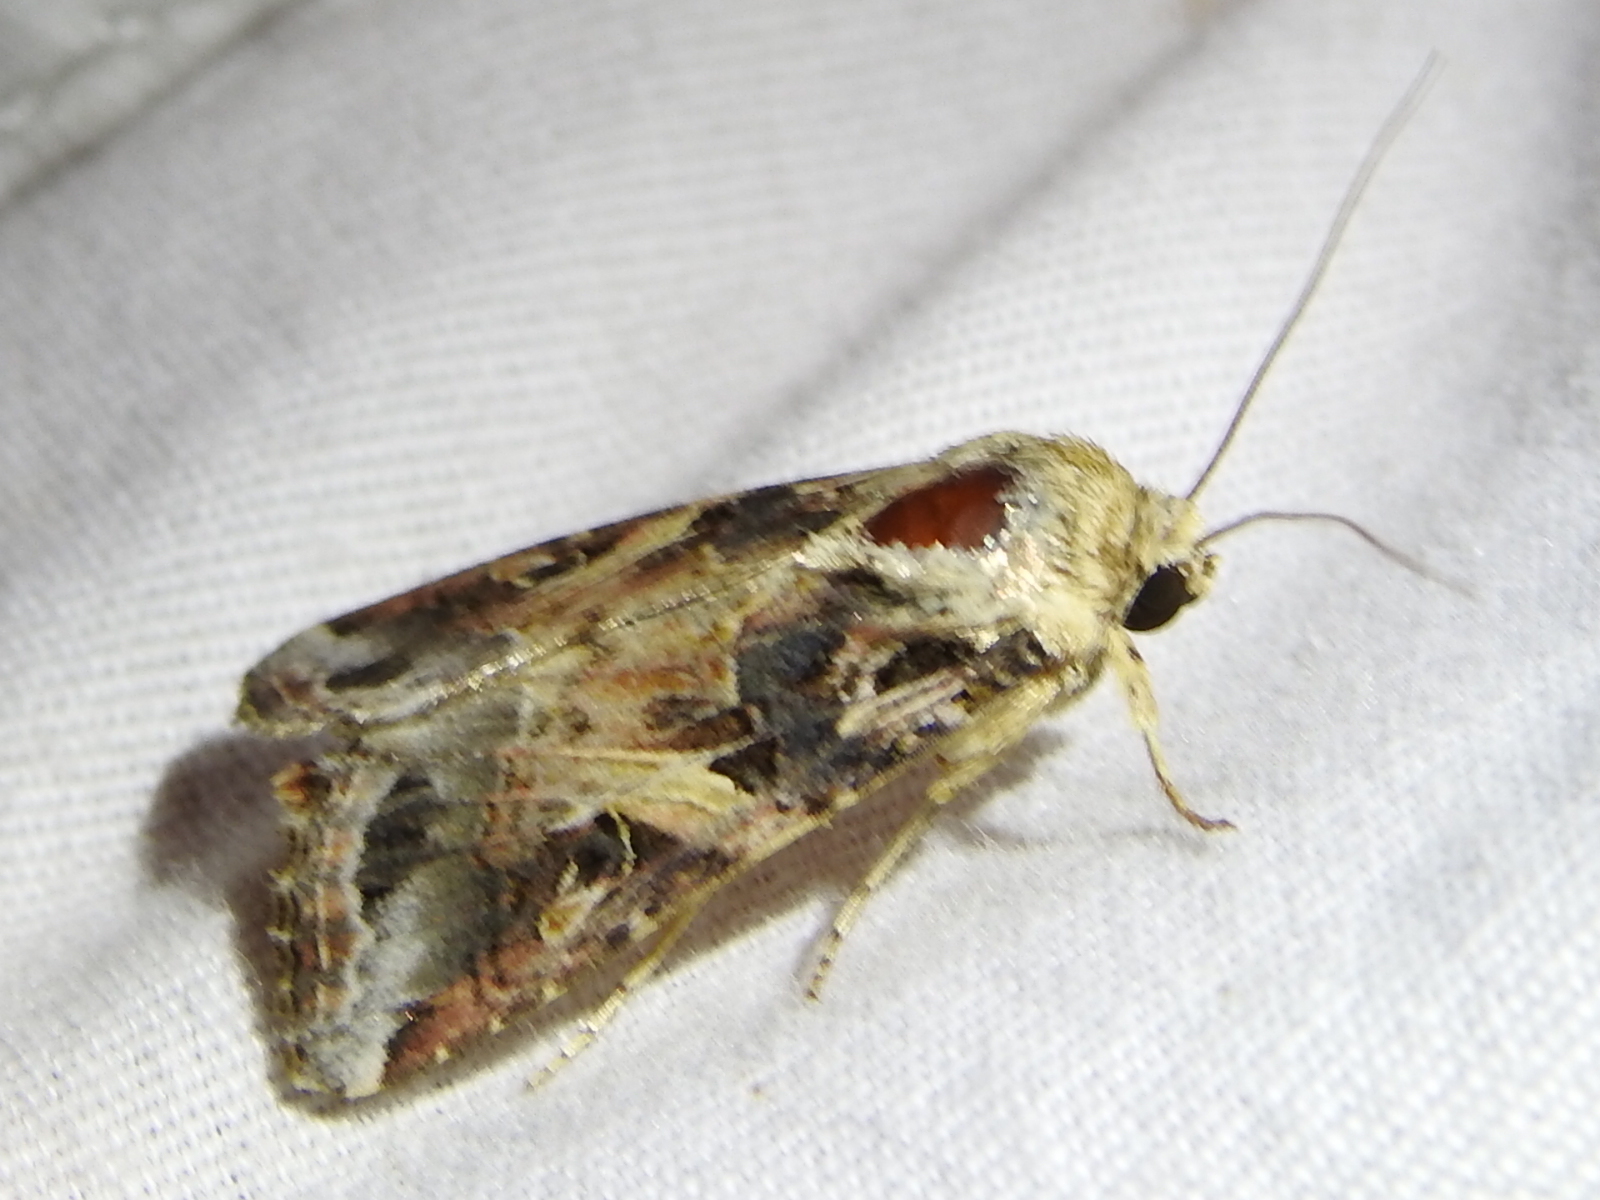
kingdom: Animalia
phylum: Arthropoda
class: Insecta
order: Lepidoptera
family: Noctuidae
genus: Spodoptera
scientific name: Spodoptera ornithogalli
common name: Yellow-striped armyworm
